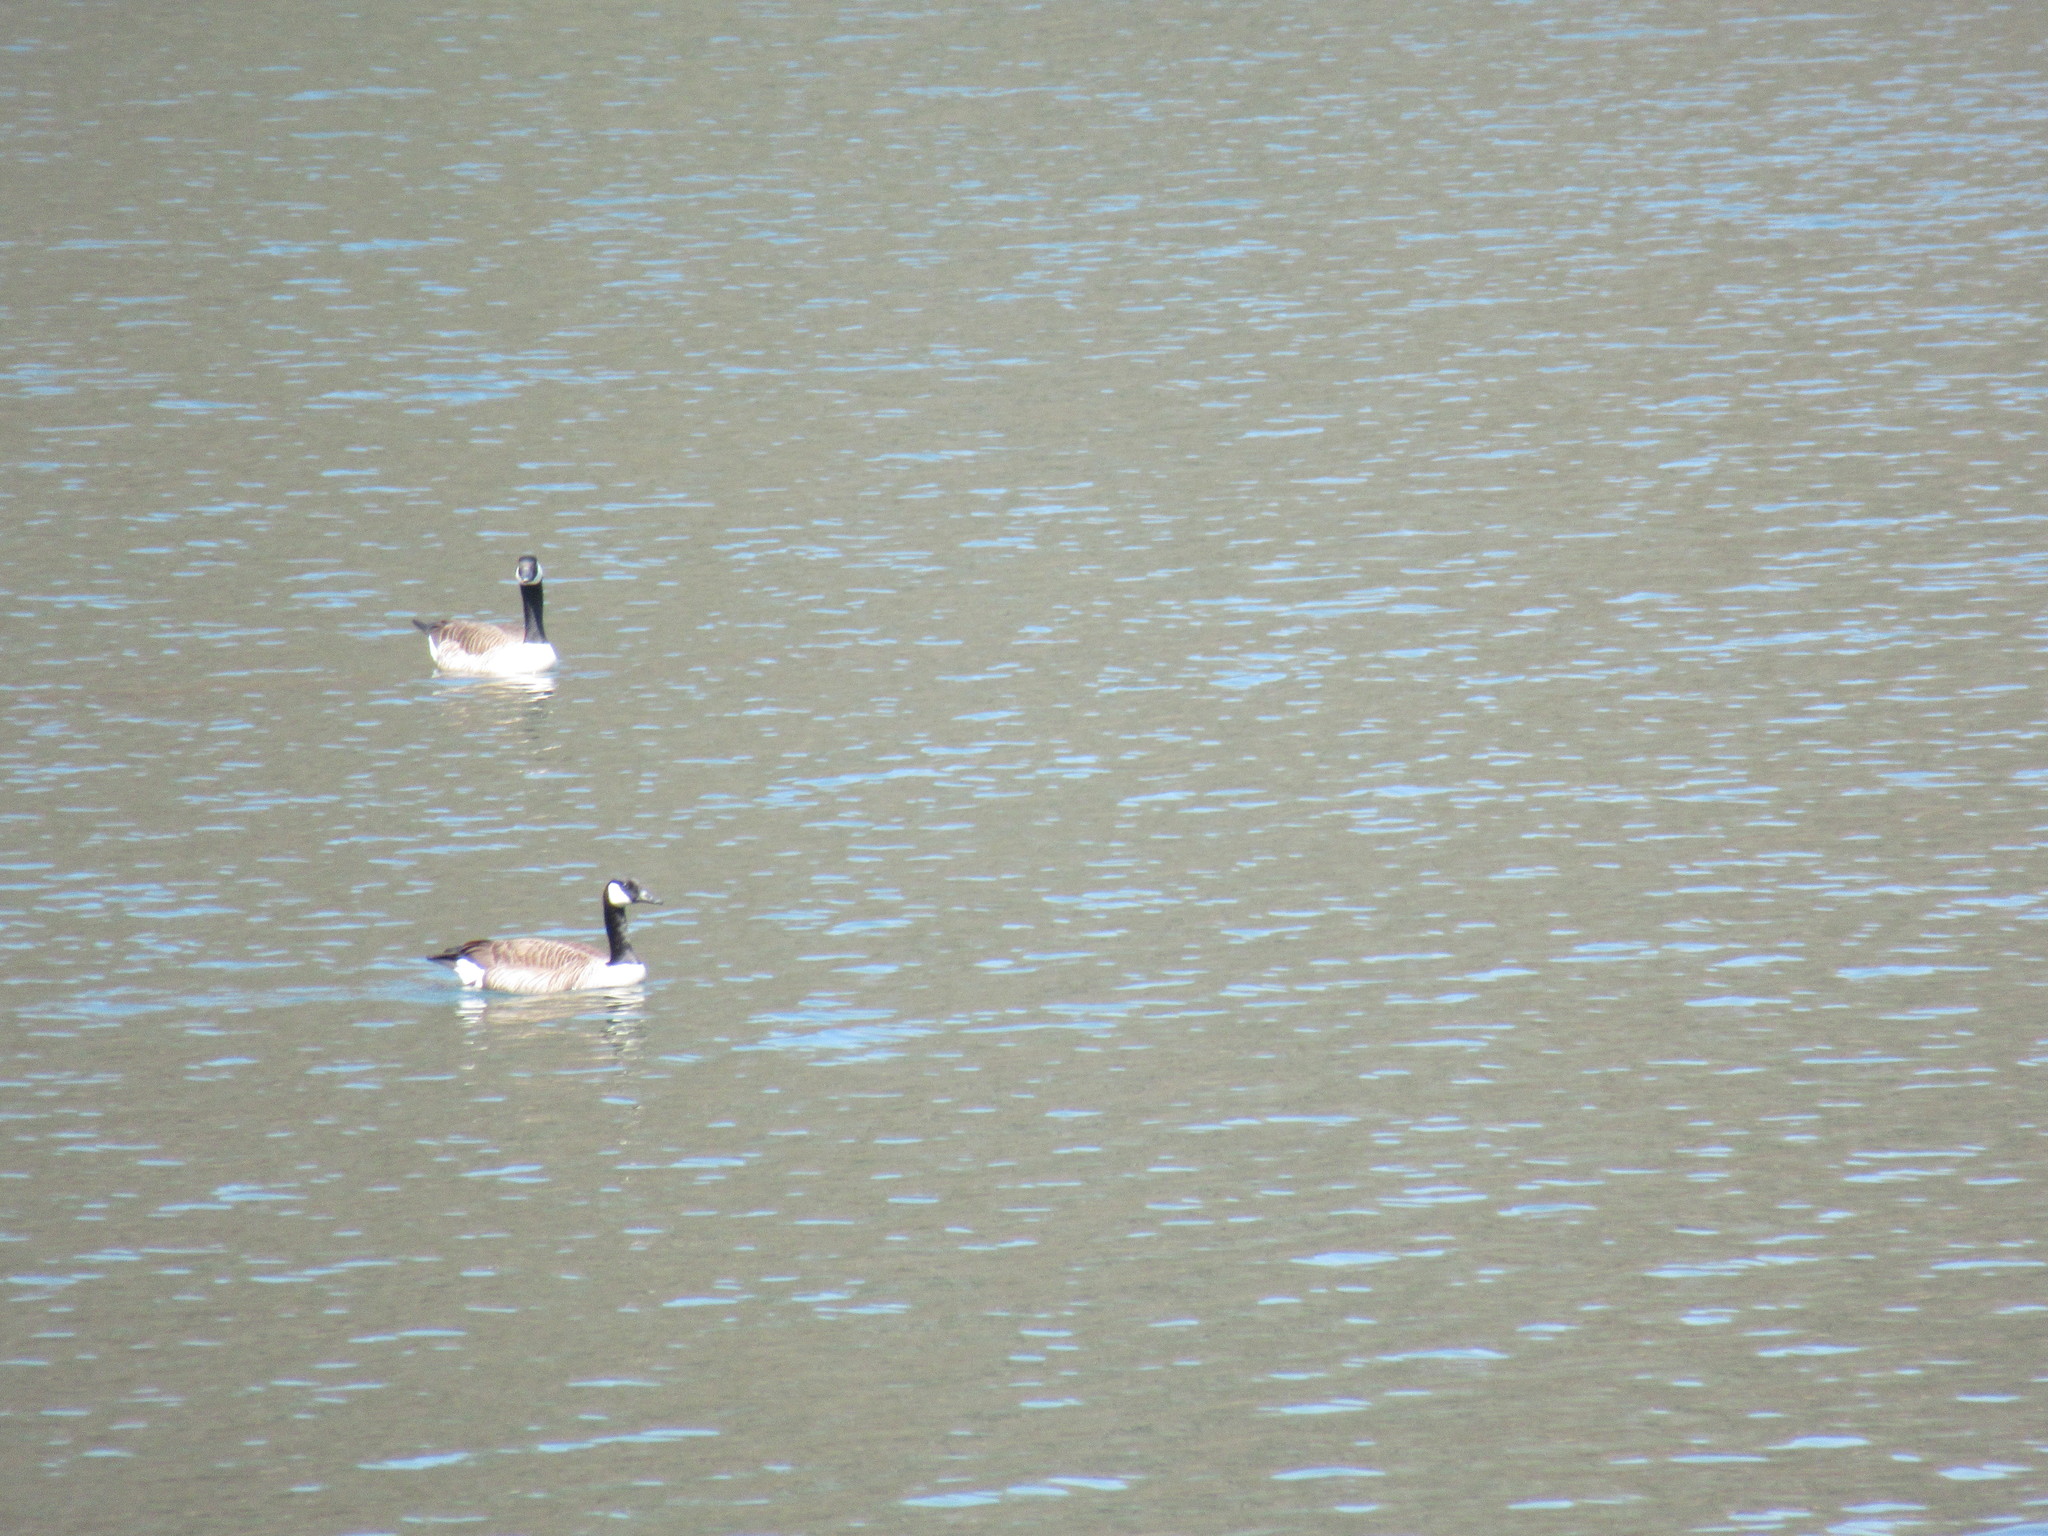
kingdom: Animalia
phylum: Chordata
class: Aves
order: Anseriformes
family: Anatidae
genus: Branta
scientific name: Branta canadensis
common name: Canada goose
